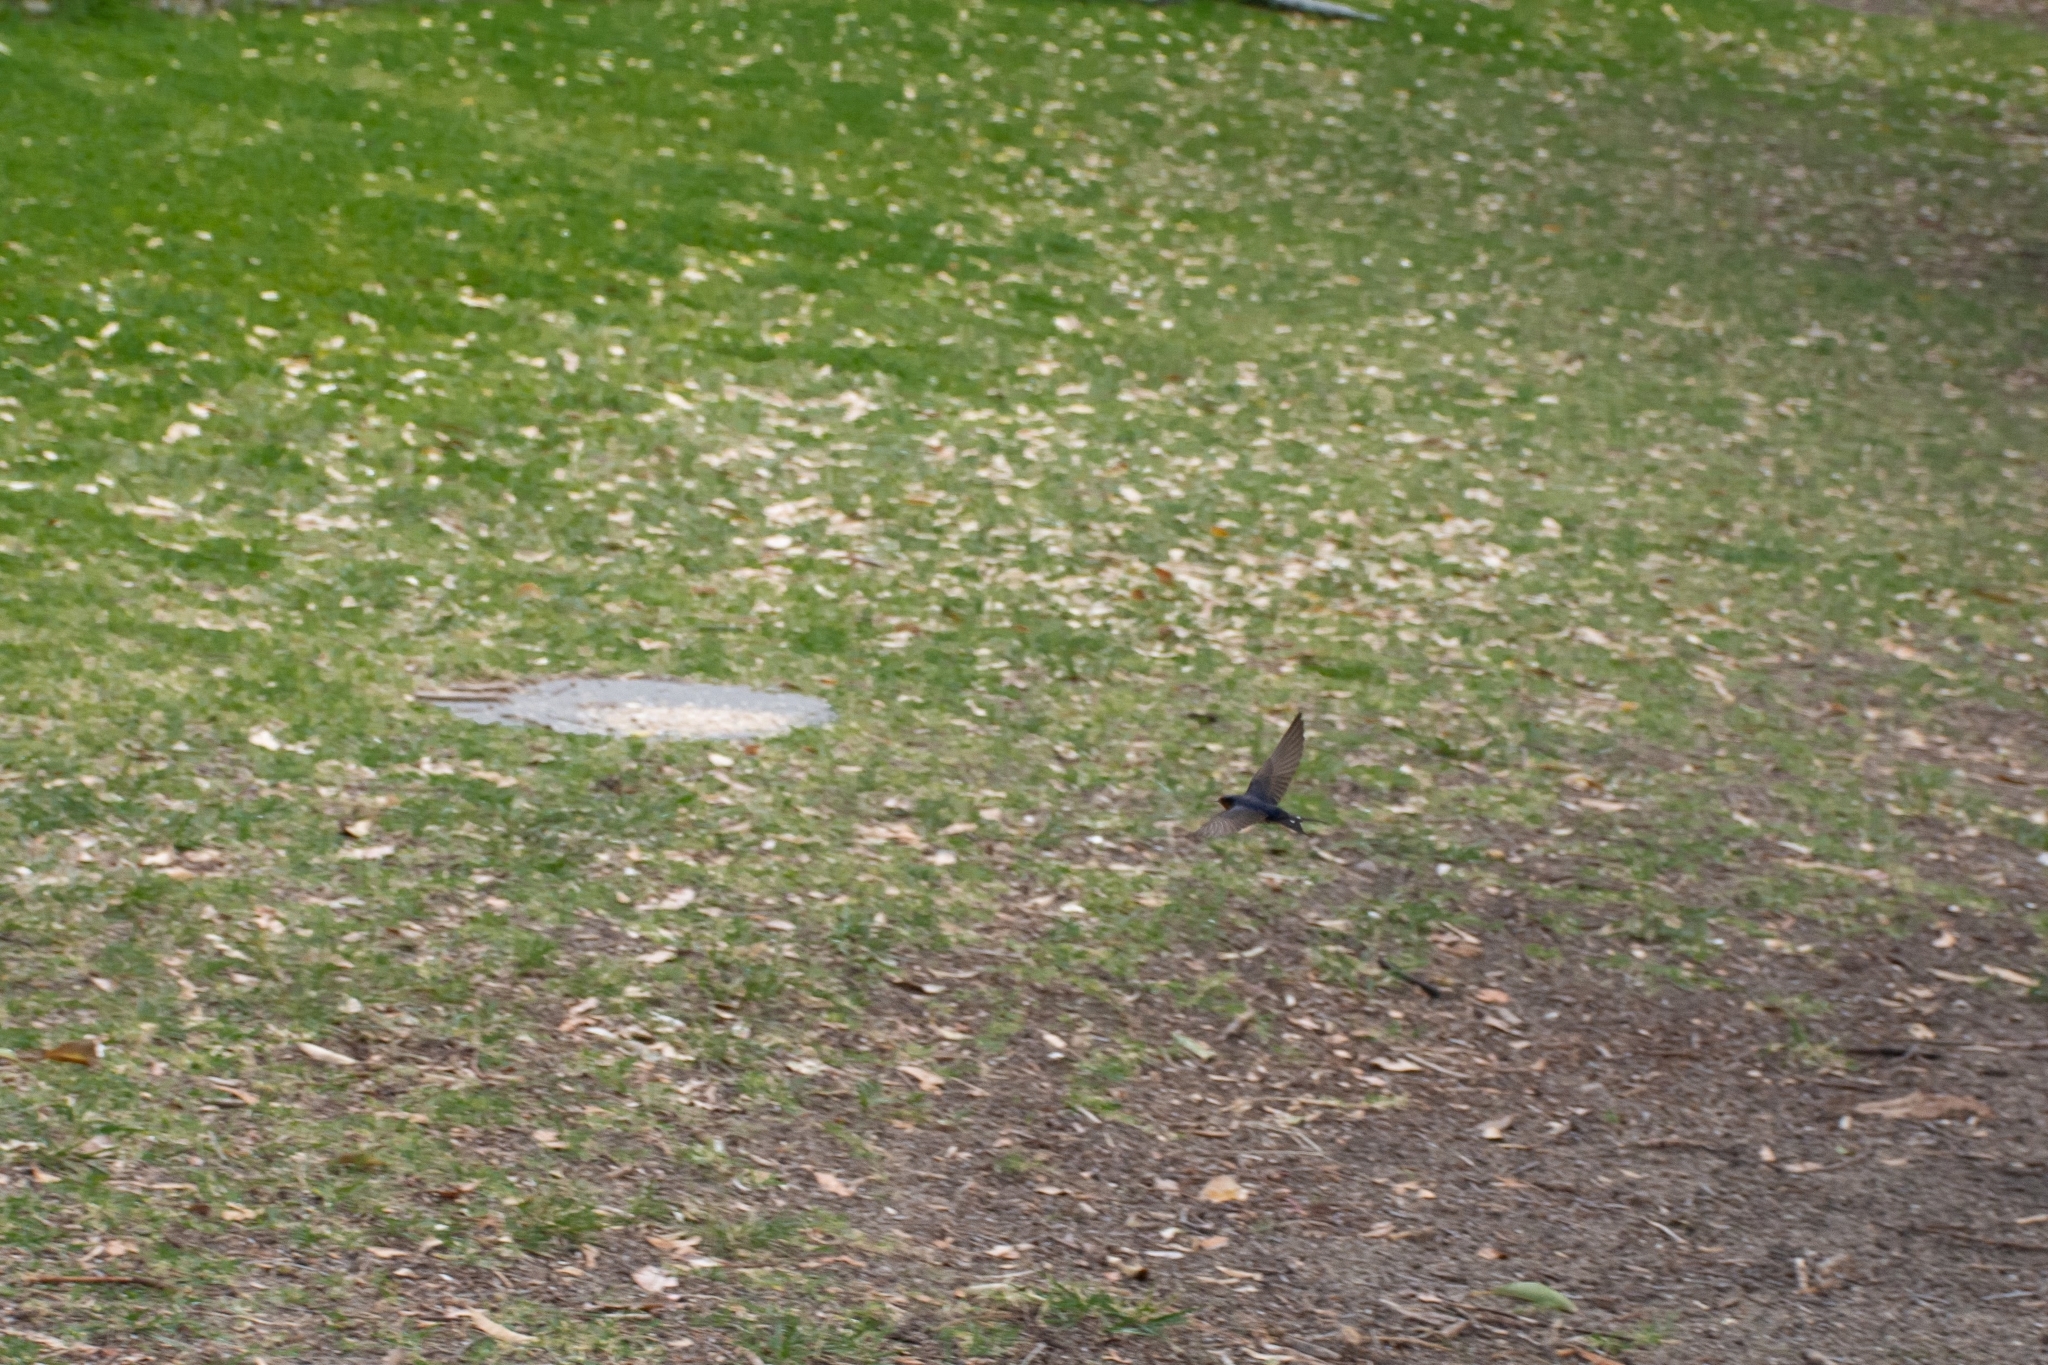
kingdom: Animalia
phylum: Chordata
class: Aves
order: Passeriformes
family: Hirundinidae
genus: Hirundo
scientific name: Hirundo neoxena
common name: Welcome swallow
